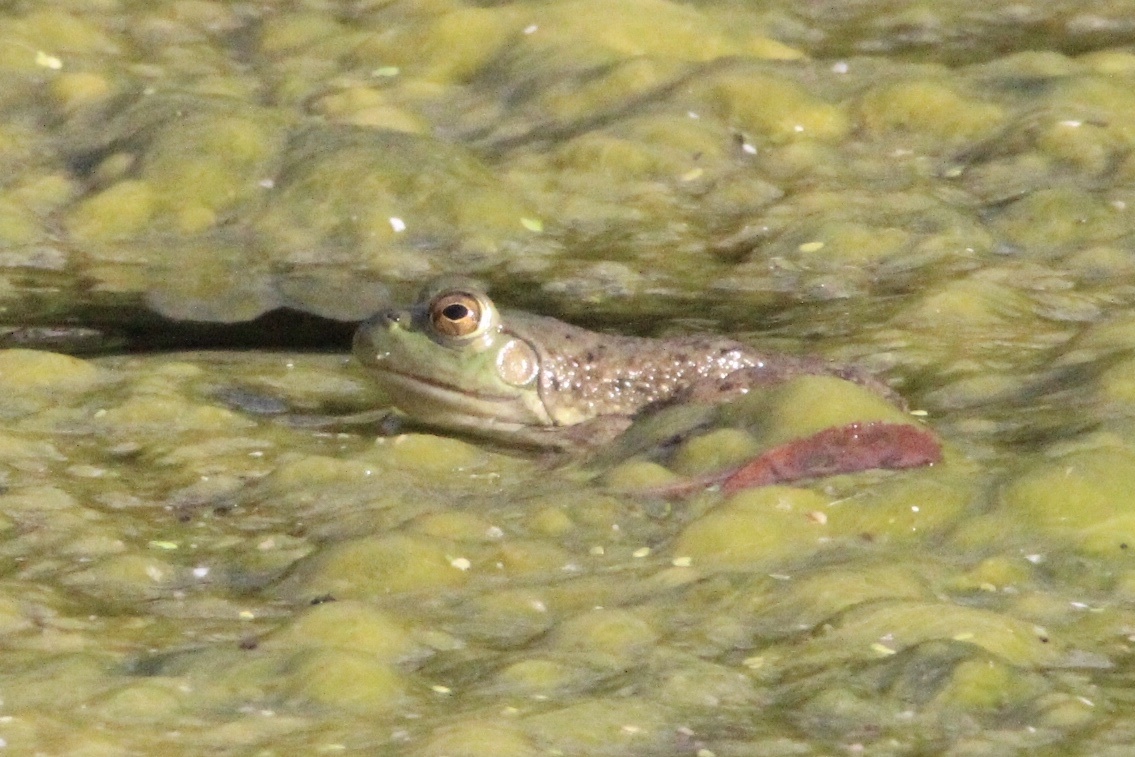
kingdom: Animalia
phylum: Chordata
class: Amphibia
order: Anura
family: Ranidae
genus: Lithobates
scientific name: Lithobates catesbeianus
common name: American bullfrog
